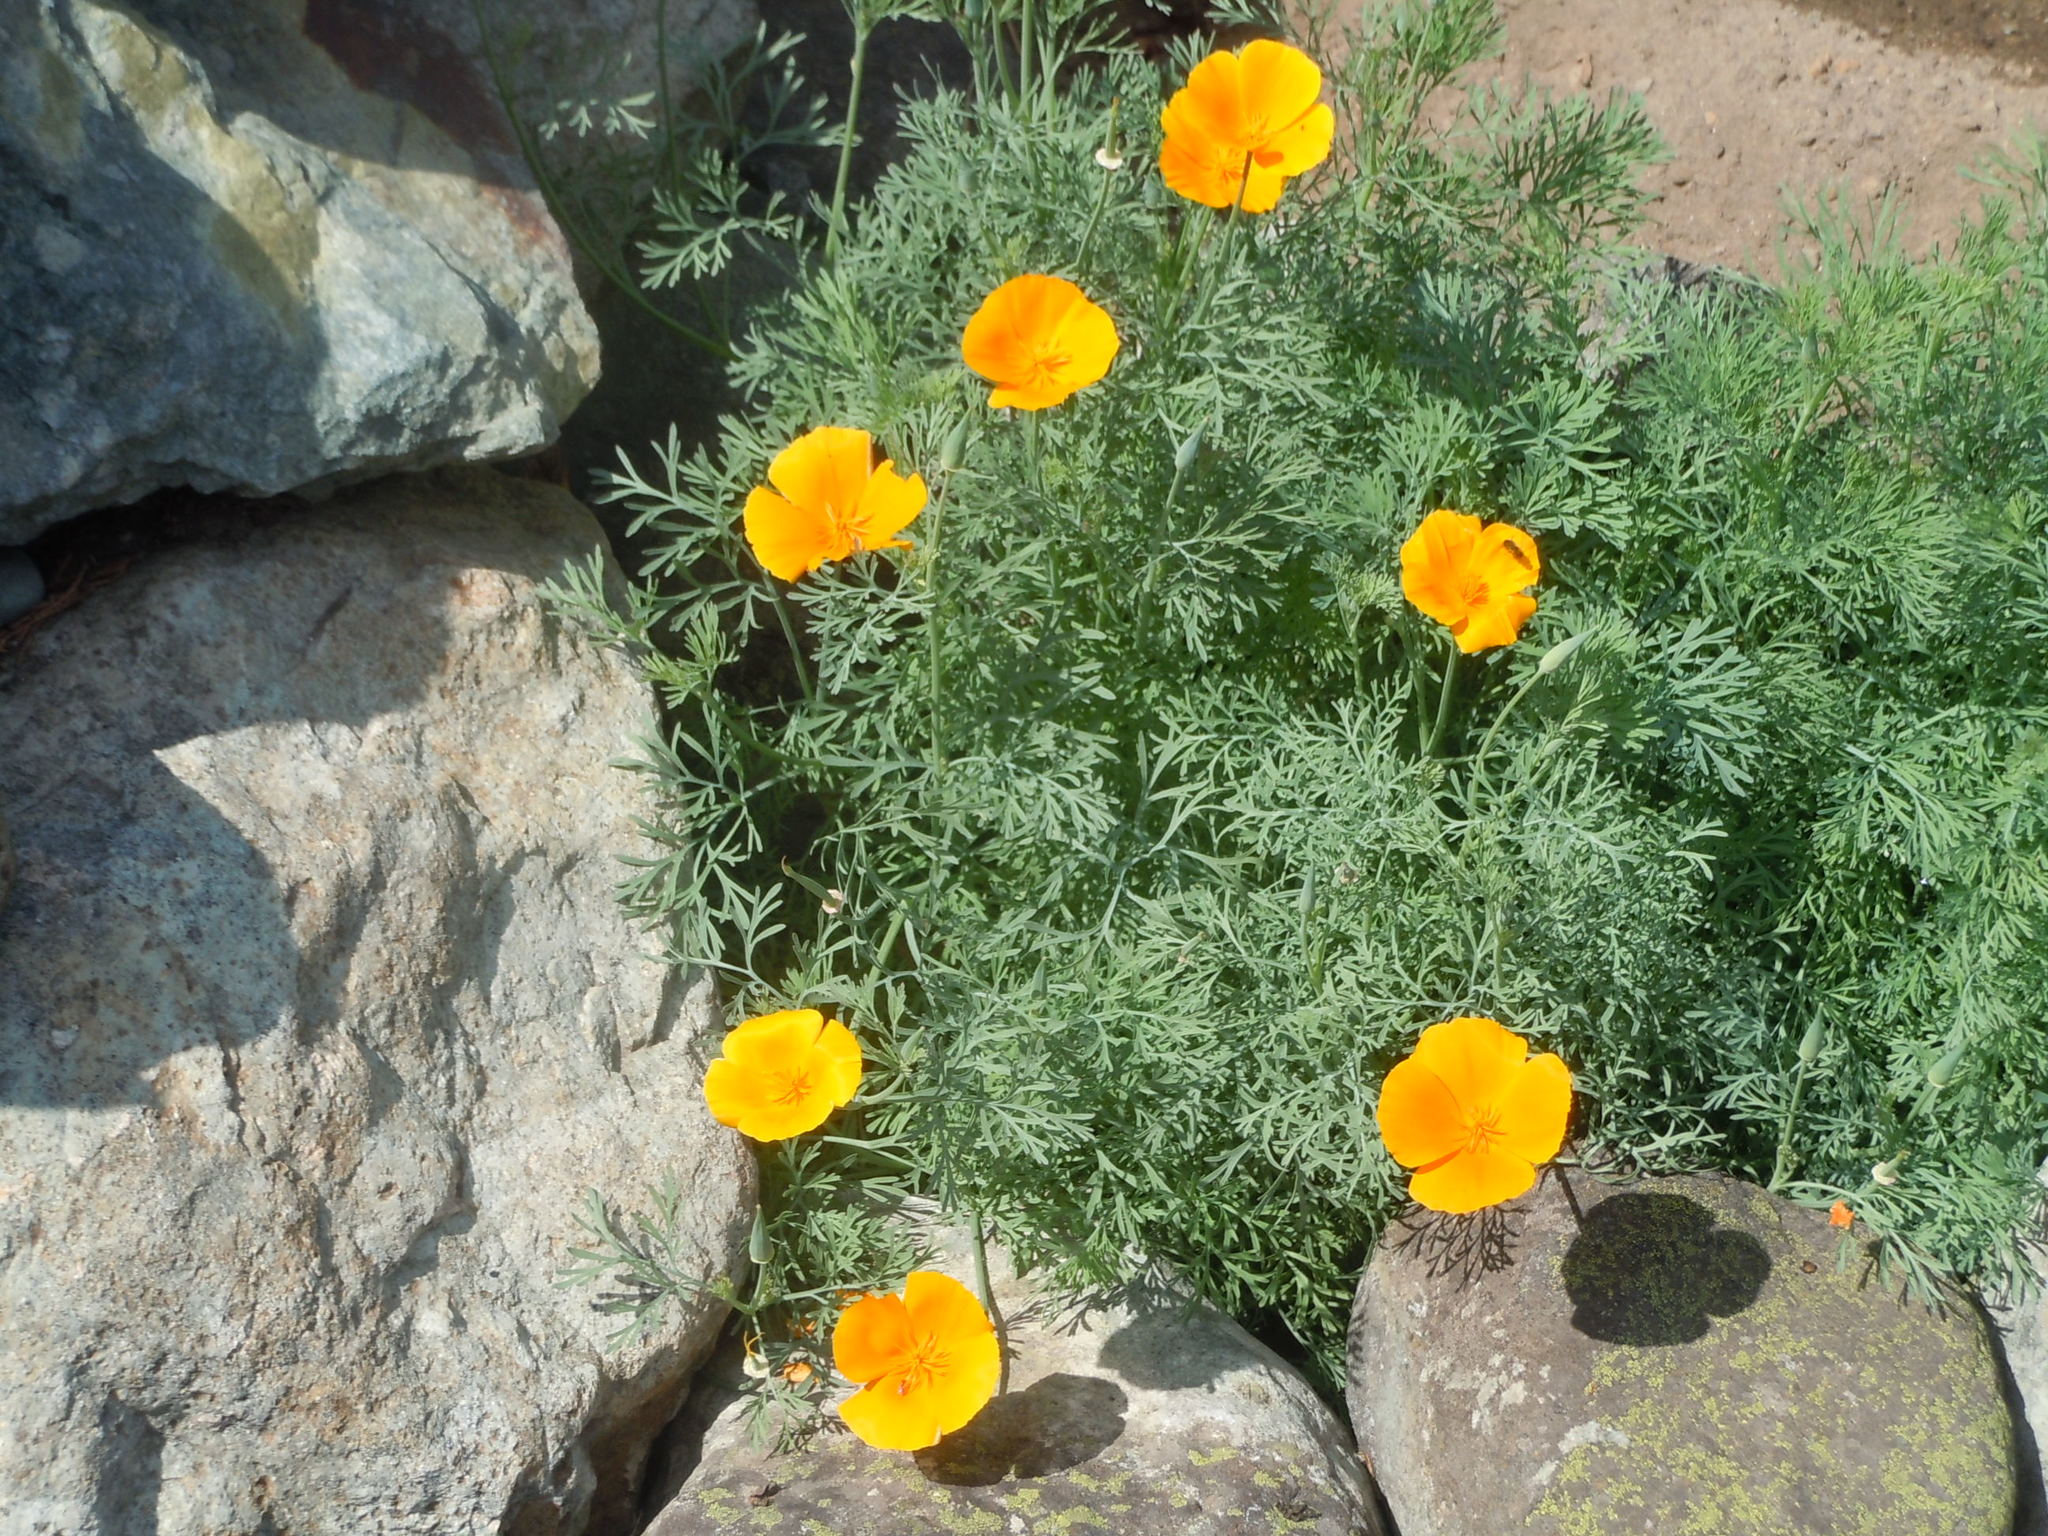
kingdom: Plantae
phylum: Tracheophyta
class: Magnoliopsida
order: Ranunculales
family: Papaveraceae
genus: Eschscholzia
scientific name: Eschscholzia californica
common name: California poppy
